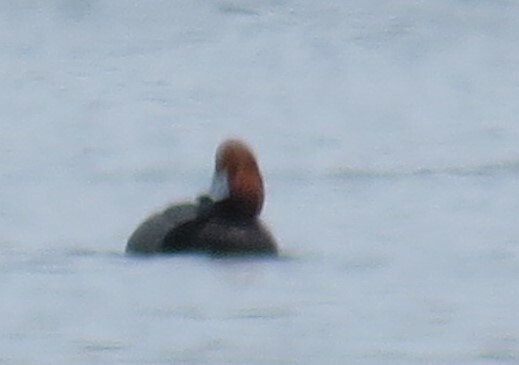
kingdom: Animalia
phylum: Chordata
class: Aves
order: Anseriformes
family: Anatidae
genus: Aythya
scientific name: Aythya americana
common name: Redhead
